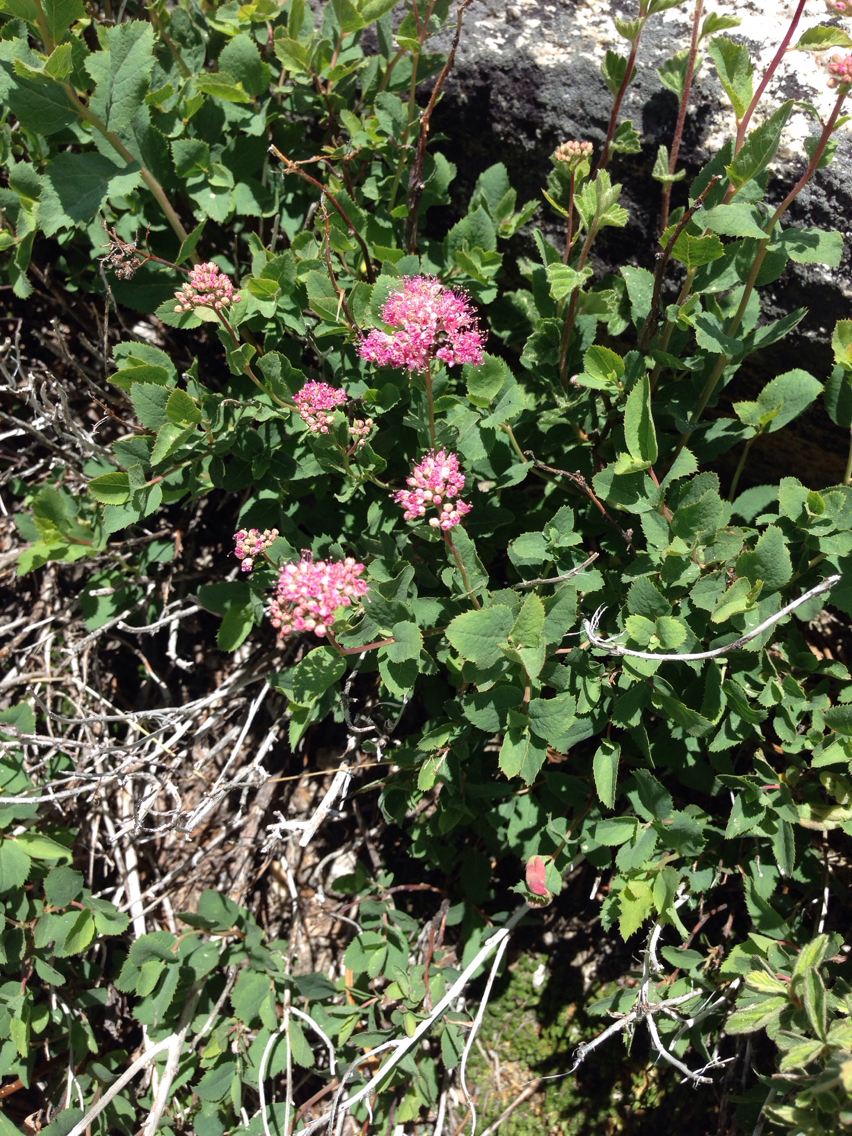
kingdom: Plantae
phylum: Tracheophyta
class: Magnoliopsida
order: Rosales
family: Rosaceae
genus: Spiraea
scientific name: Spiraea splendens
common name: Subalpine meadowsweet
